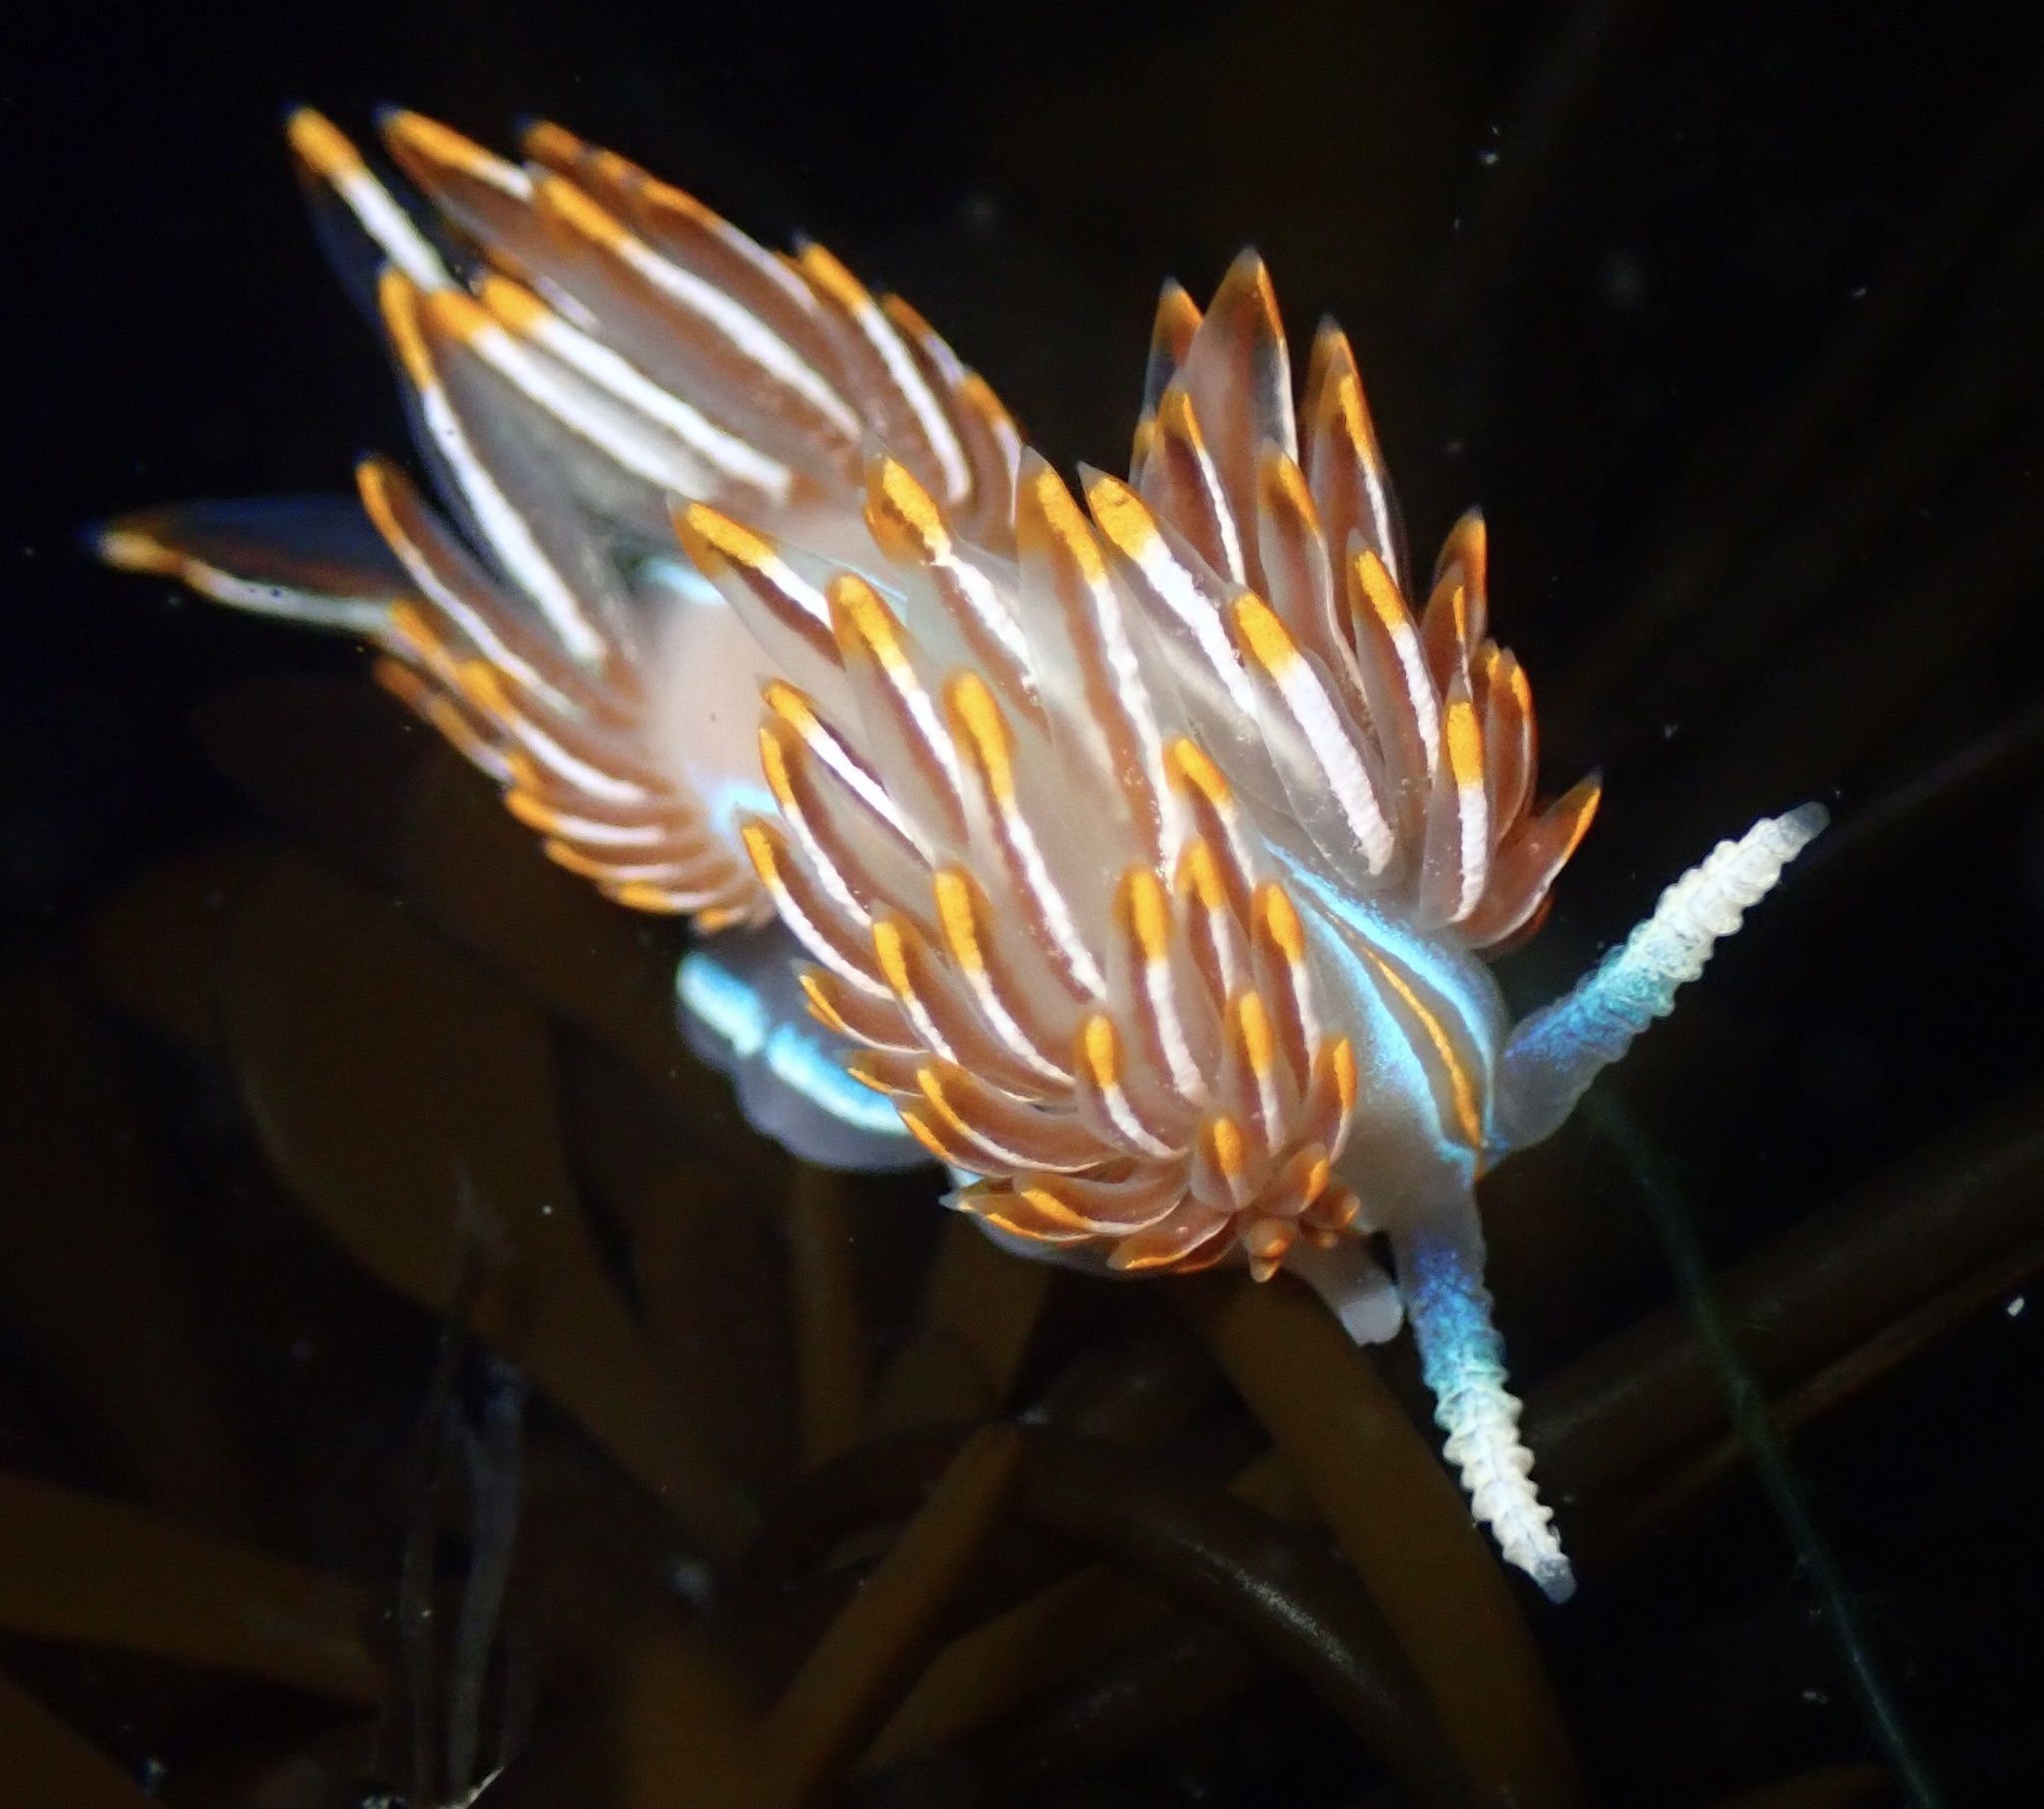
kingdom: Animalia
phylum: Mollusca
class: Gastropoda
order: Nudibranchia
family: Myrrhinidae
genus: Hermissenda
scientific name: Hermissenda crassicornis
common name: Hermissenda
